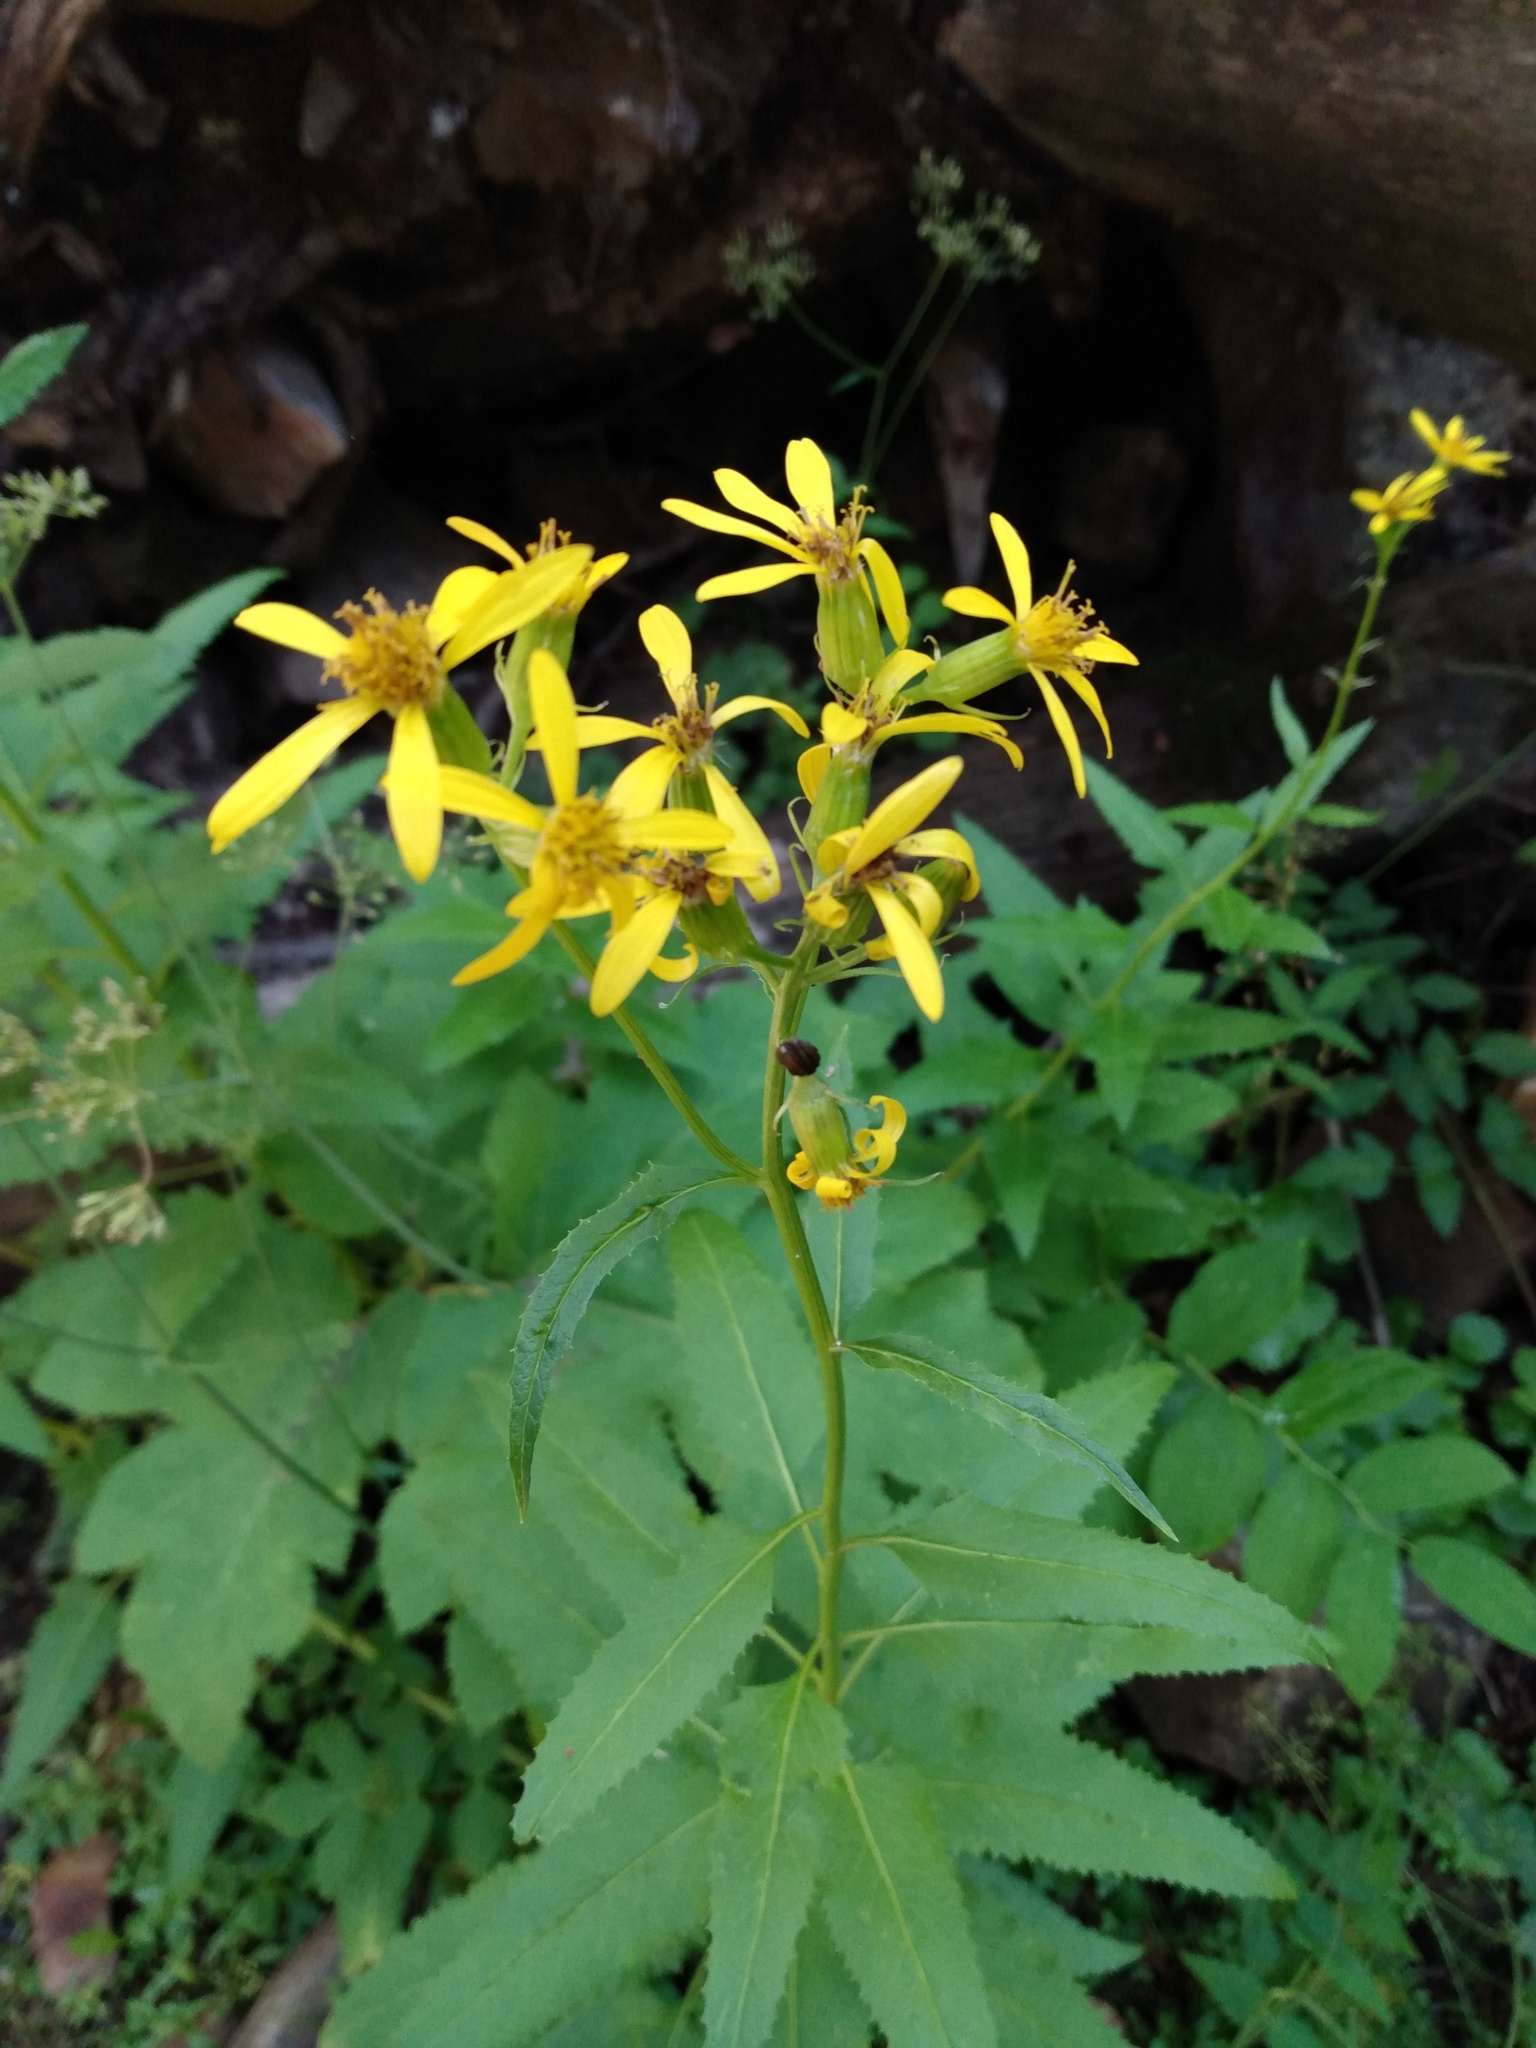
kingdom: Plantae
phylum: Tracheophyta
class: Magnoliopsida
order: Asterales
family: Asteraceae
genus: Senecio
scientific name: Senecio triangularis
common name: Arrowleaf butterweed
